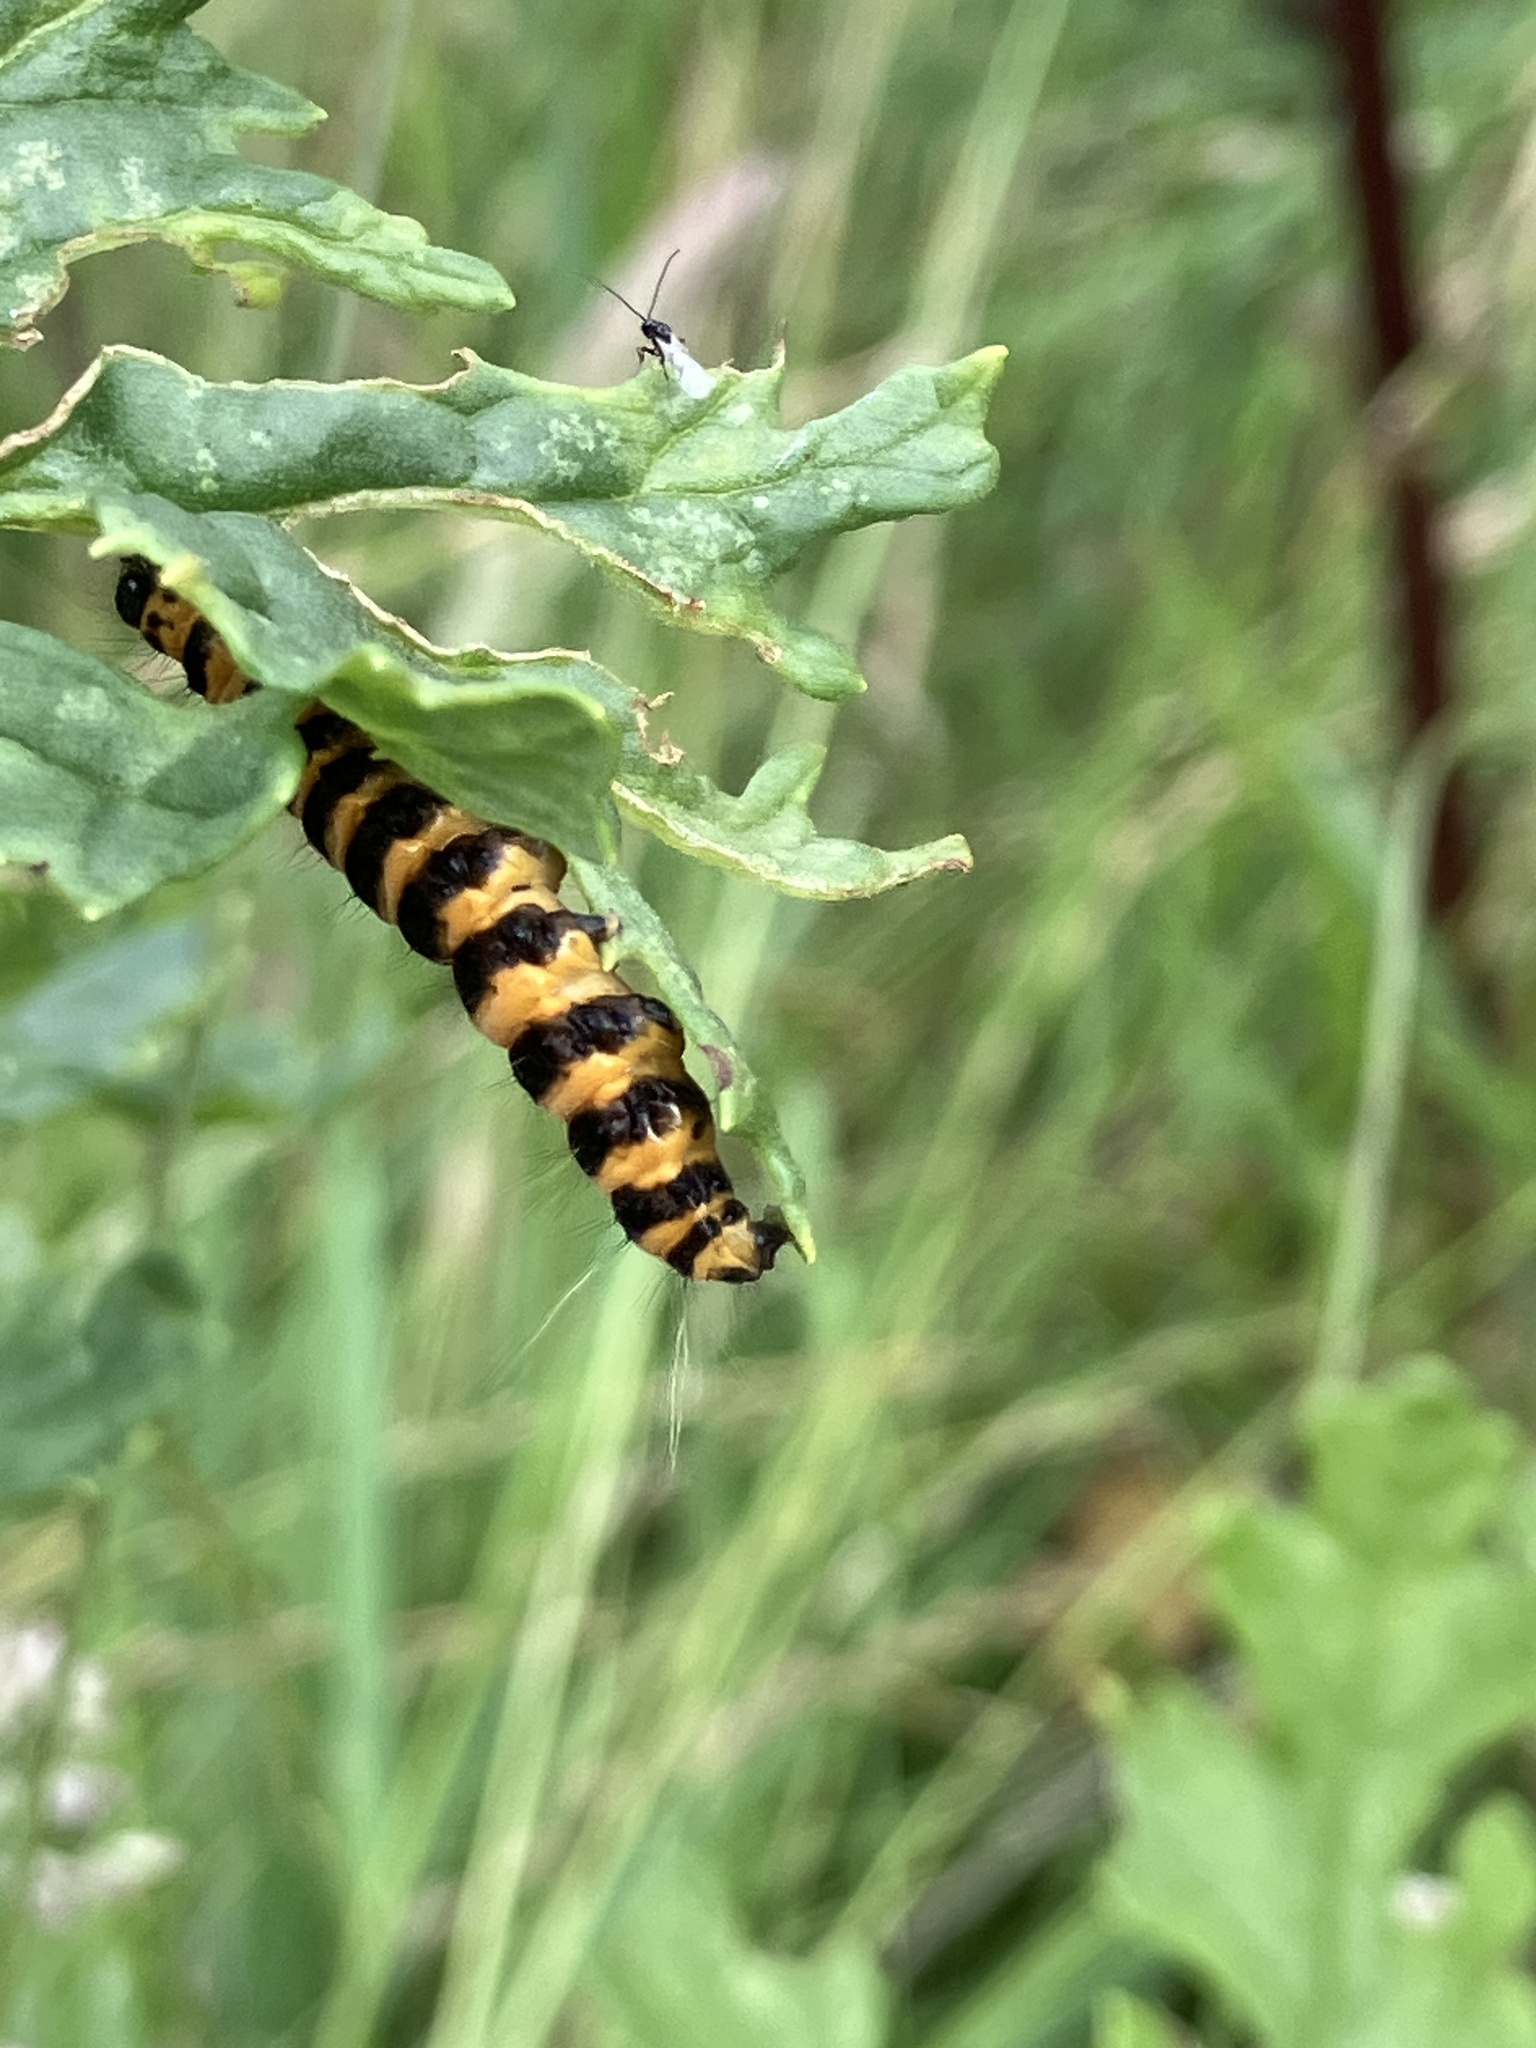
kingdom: Animalia
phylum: Arthropoda
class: Insecta
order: Lepidoptera
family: Erebidae
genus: Tyria
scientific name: Tyria jacobaeae
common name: Cinnabar
